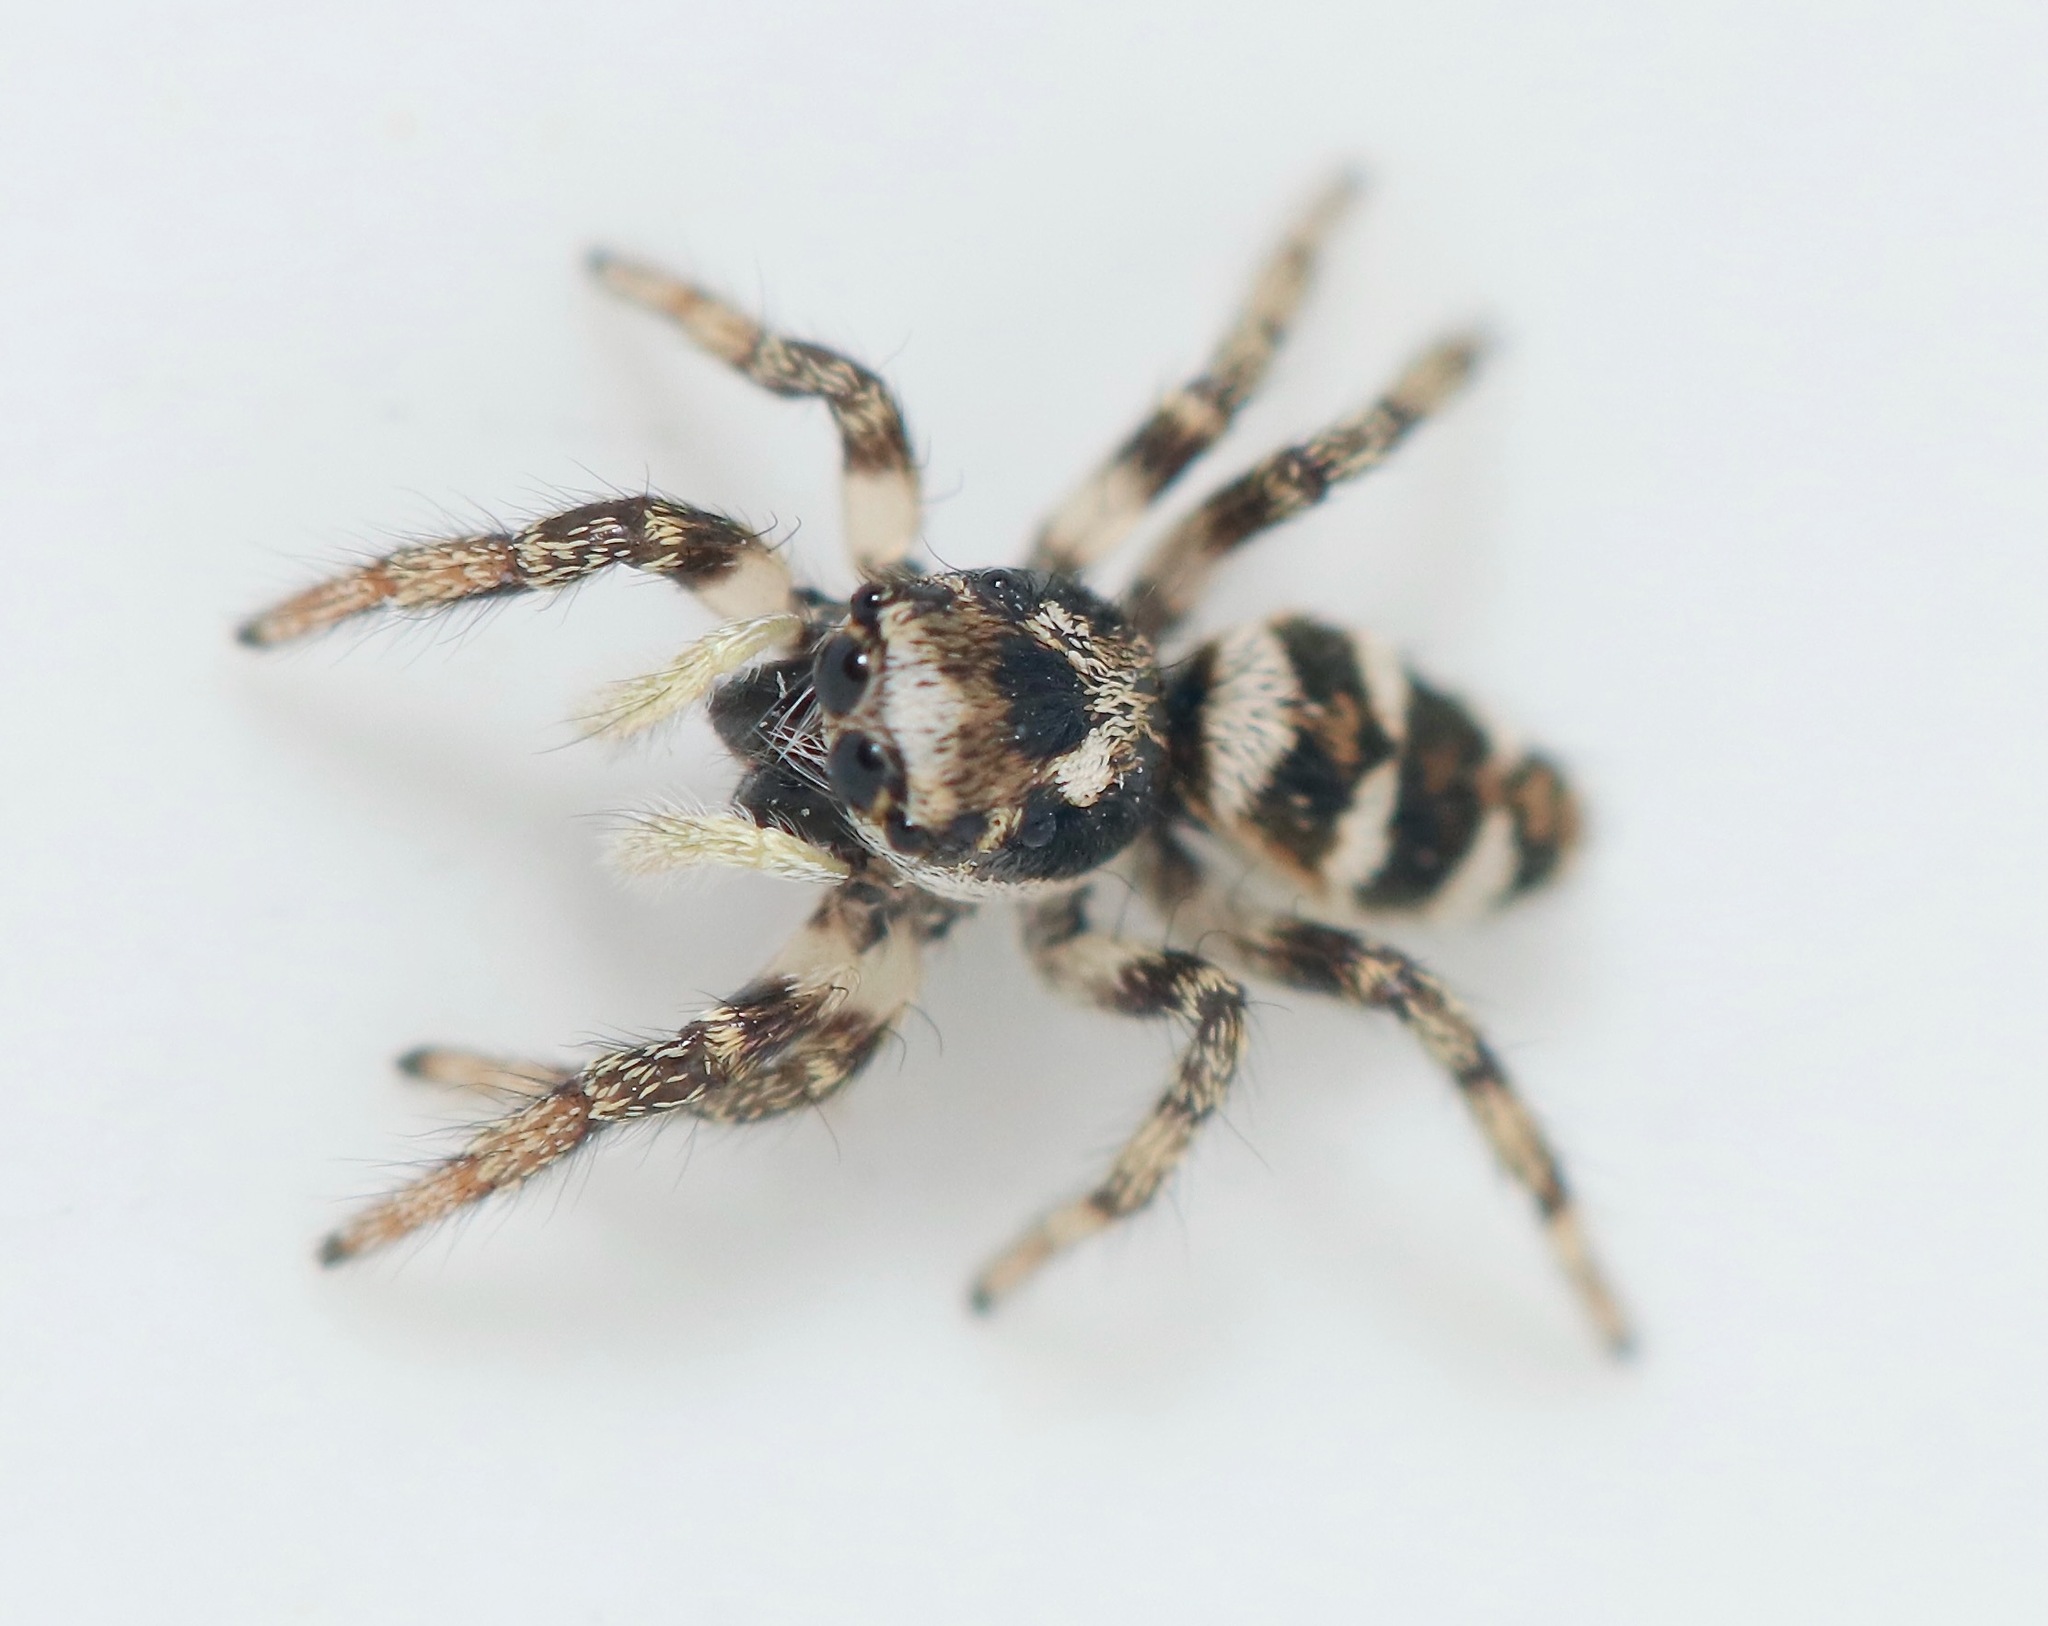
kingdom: Animalia
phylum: Arthropoda
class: Arachnida
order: Araneae
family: Salticidae
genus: Salticus
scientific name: Salticus scenicus
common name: Zebra jumper
